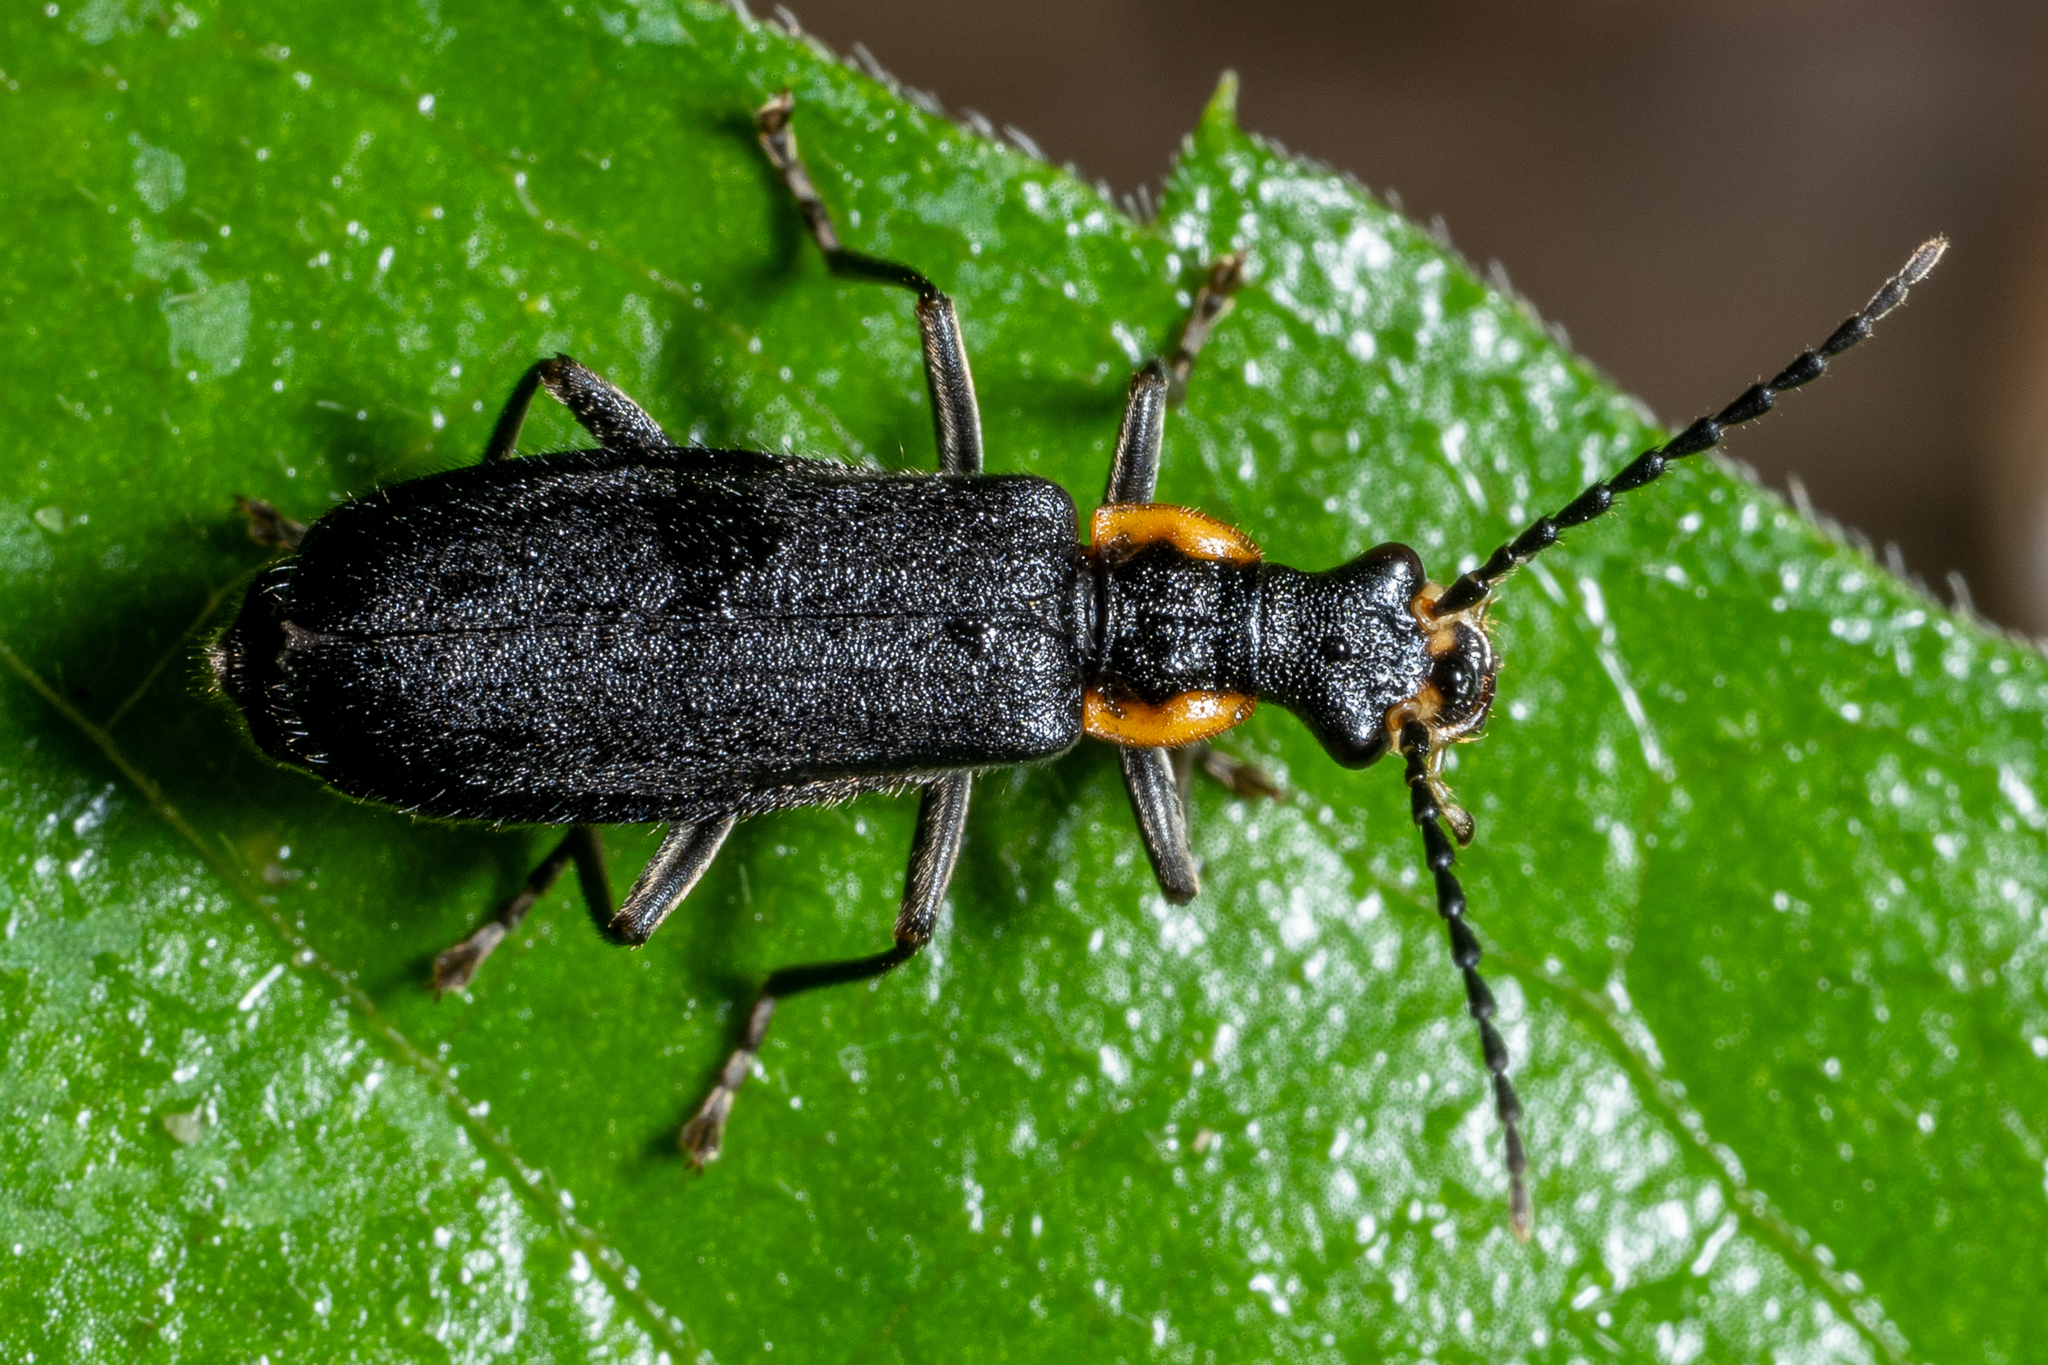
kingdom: Animalia
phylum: Arthropoda
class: Insecta
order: Coleoptera
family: Cantharidae
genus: Podabrus
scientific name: Podabrus rugosulus
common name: Wrinkled soldier beetle
